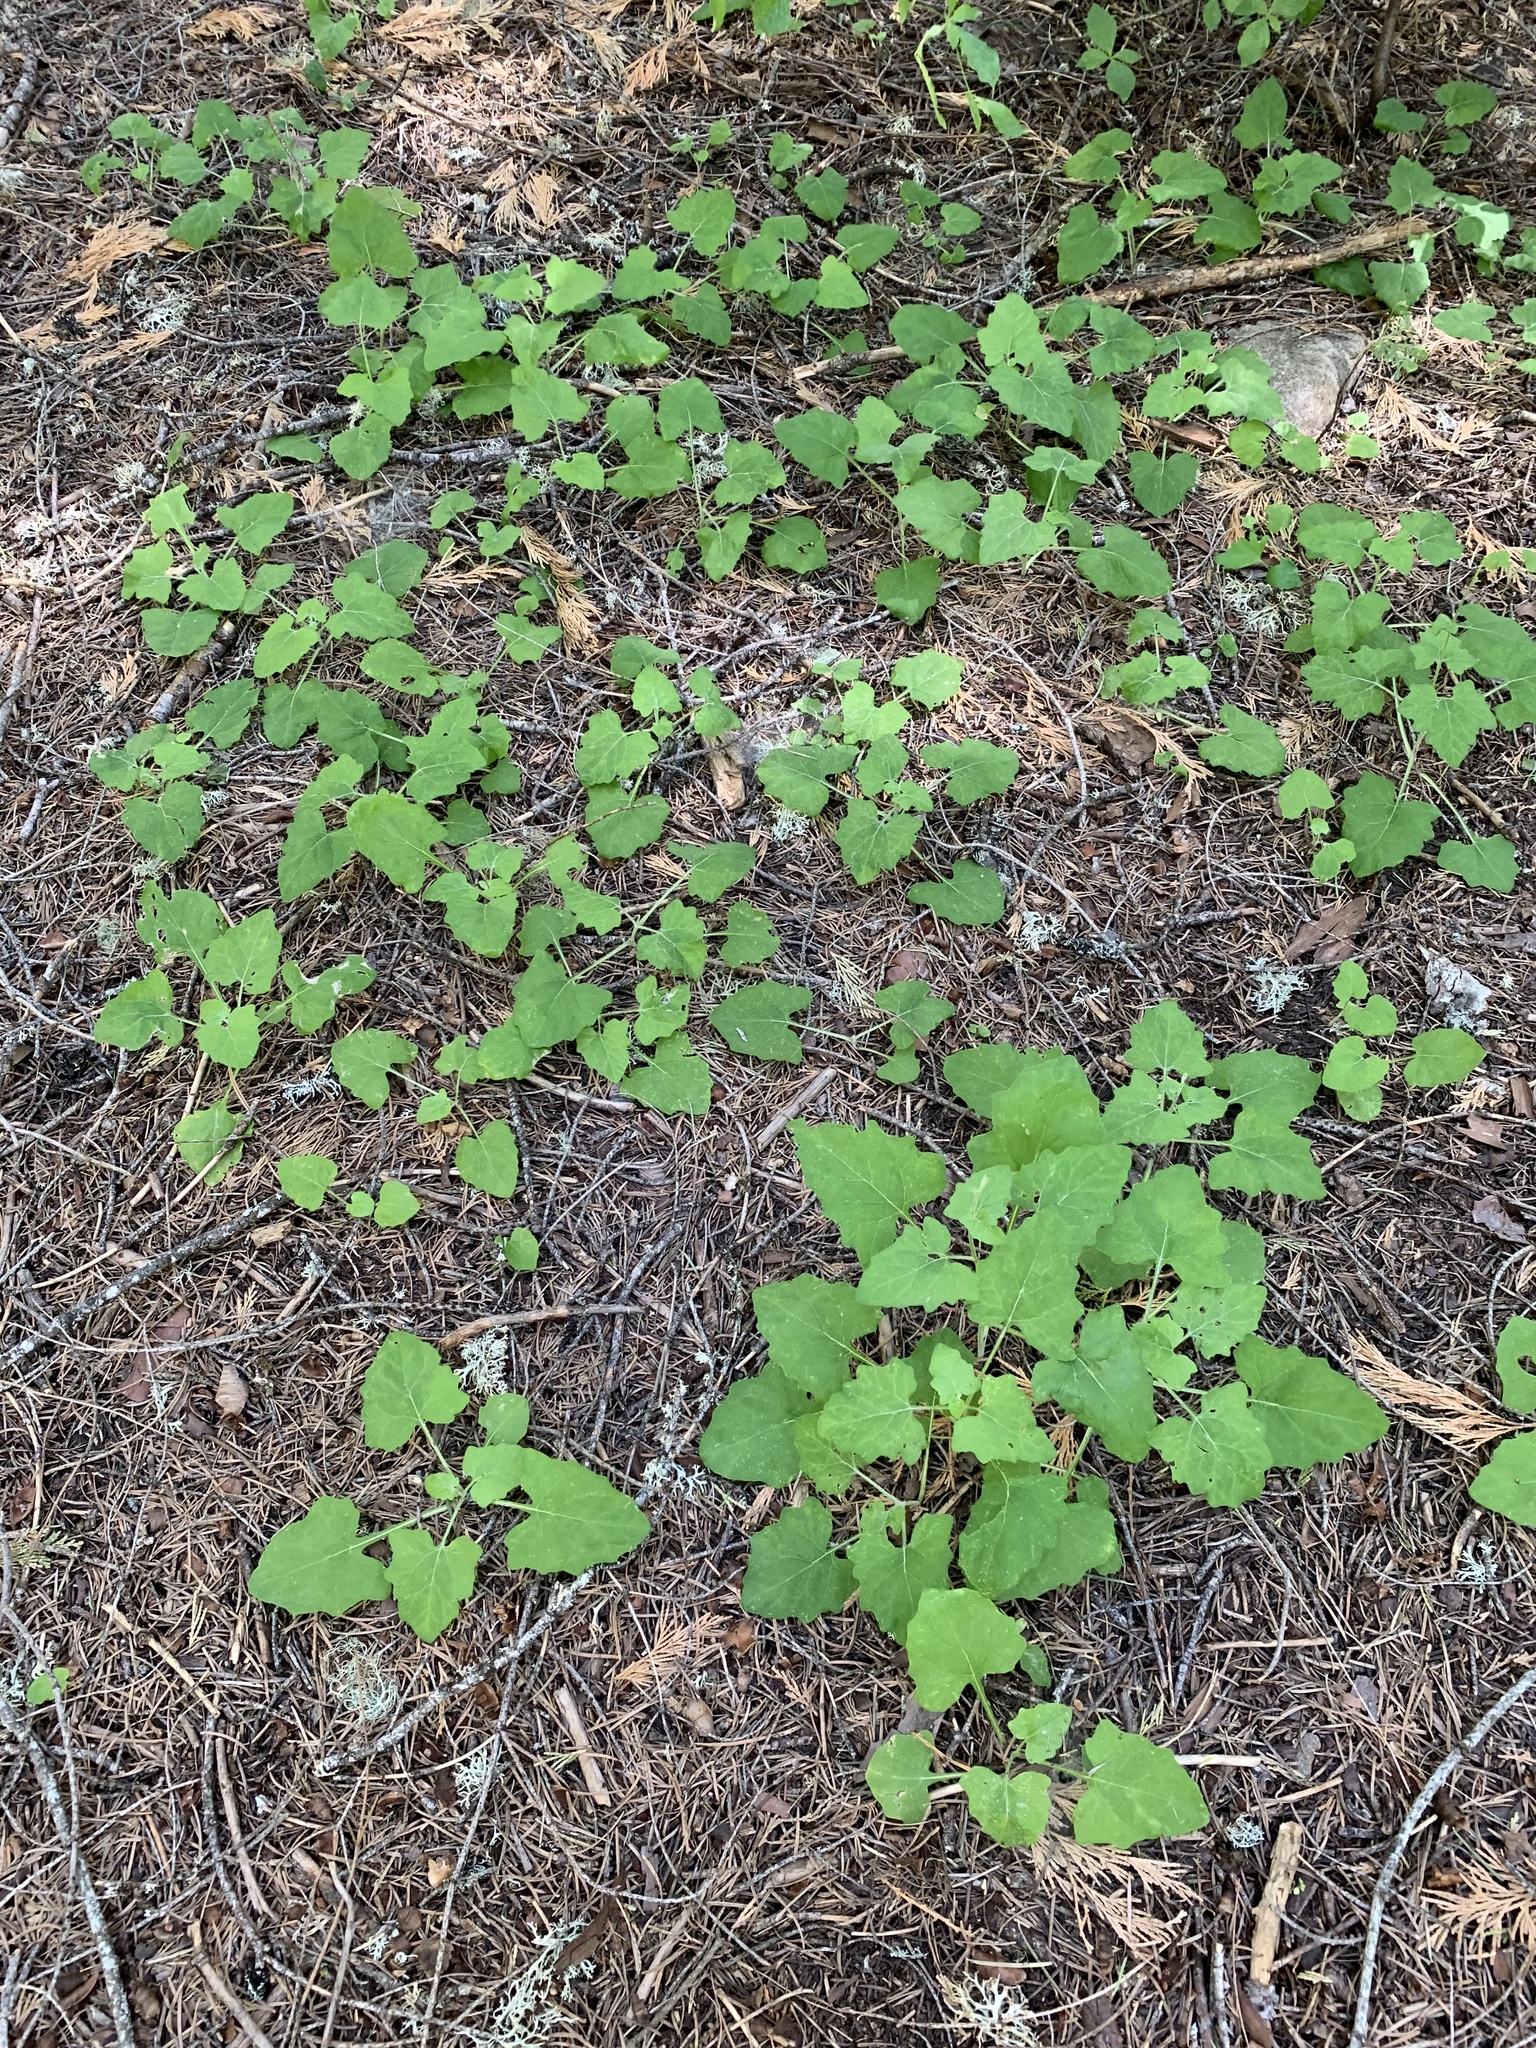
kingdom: Plantae
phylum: Tracheophyta
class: Magnoliopsida
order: Asterales
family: Asteraceae
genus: Adenocaulon
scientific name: Adenocaulon bicolor
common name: Trailplant
